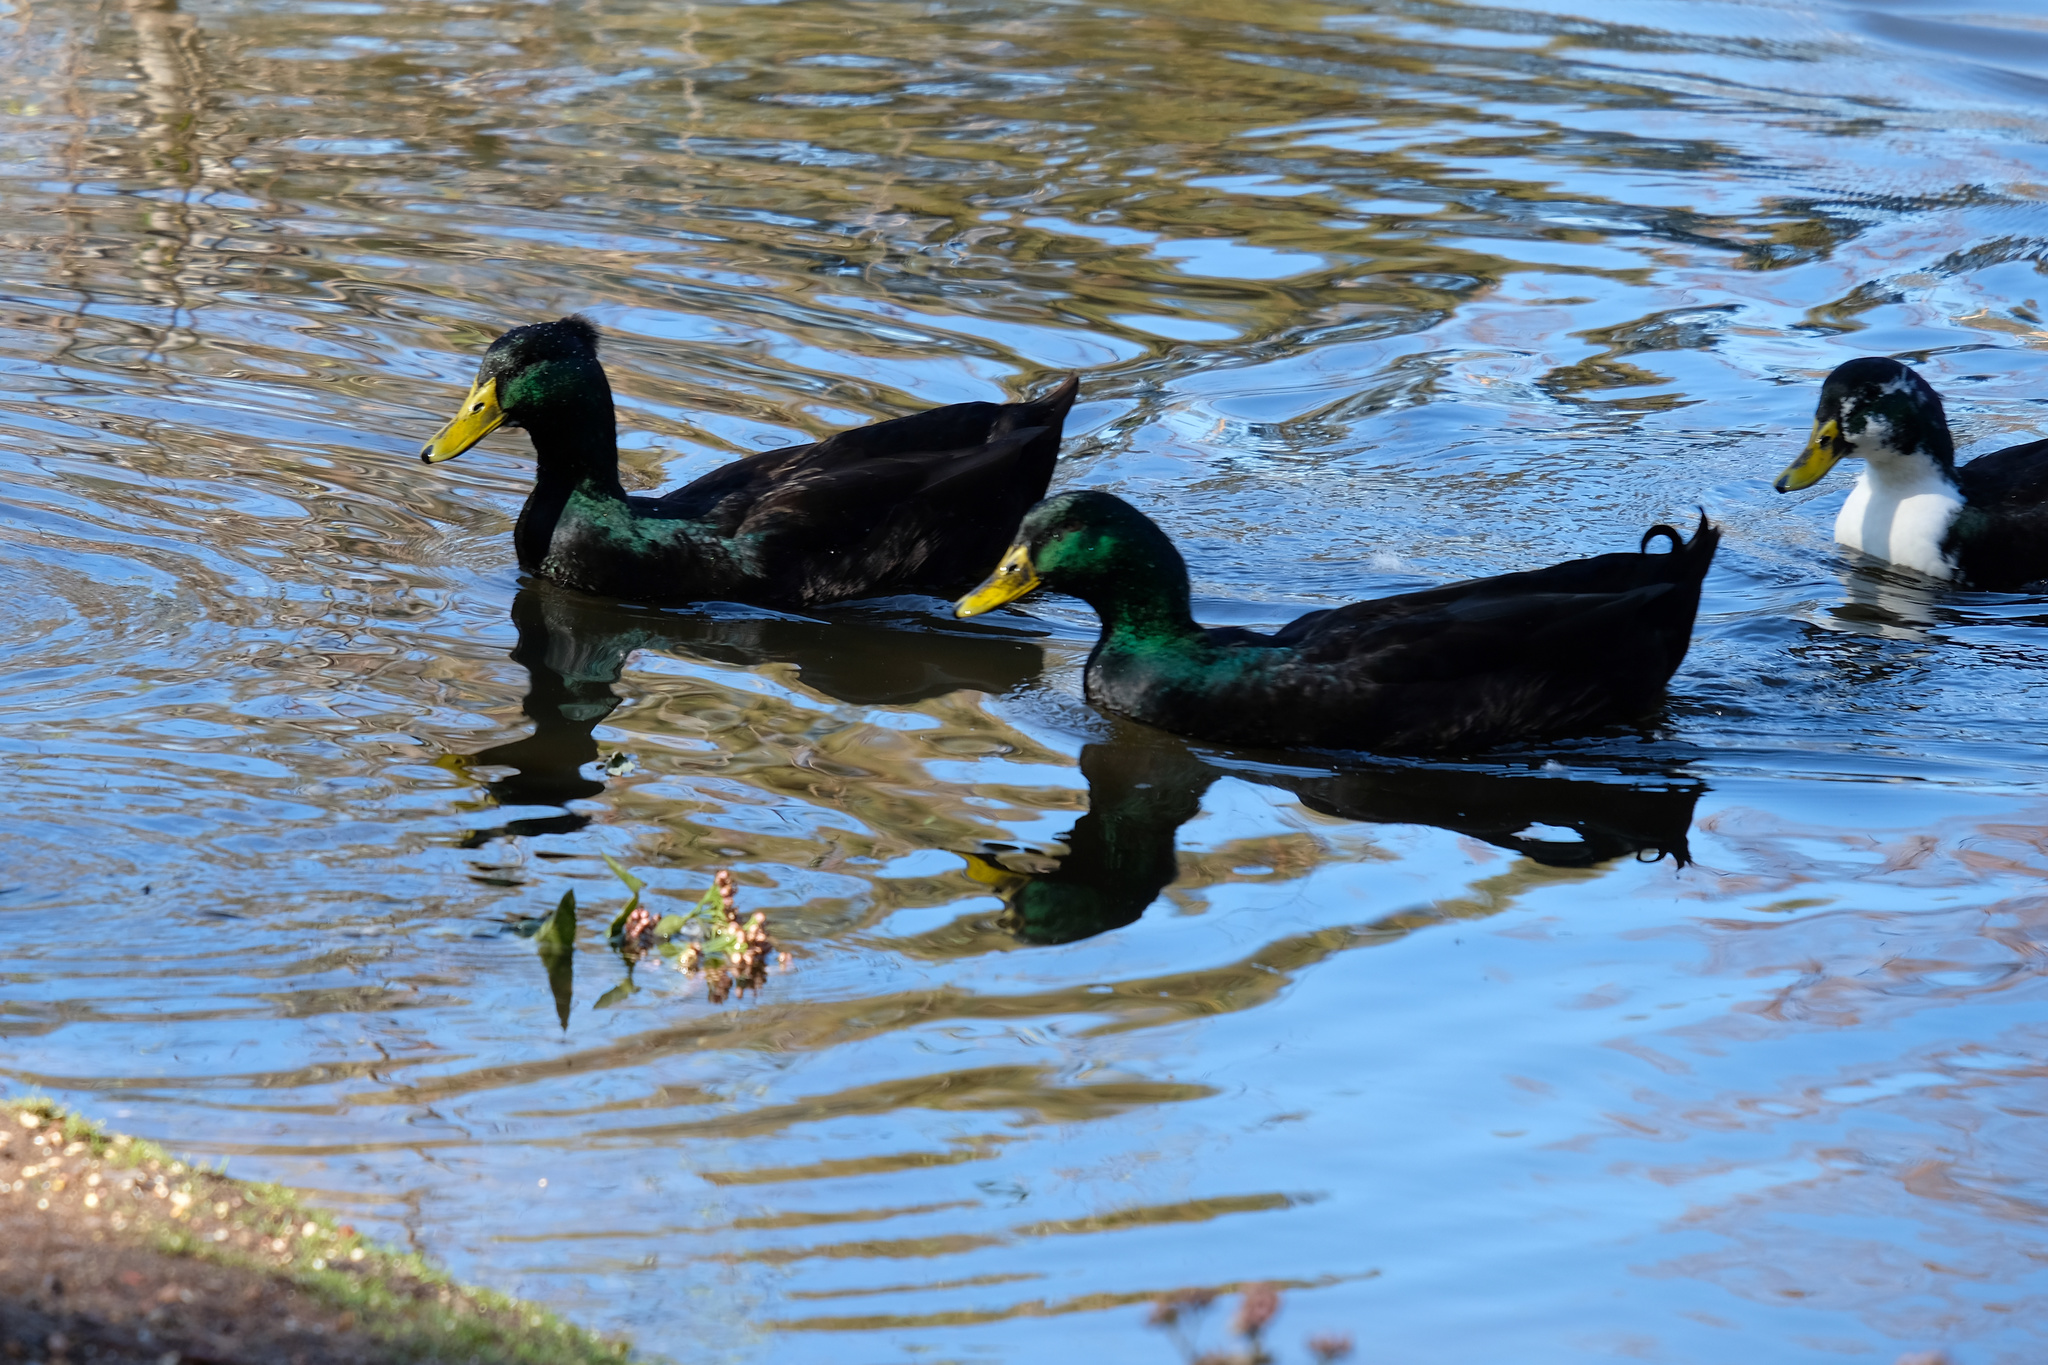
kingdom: Animalia
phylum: Chordata
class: Aves
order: Anseriformes
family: Anatidae
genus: Anas
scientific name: Anas platyrhynchos
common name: Mallard
